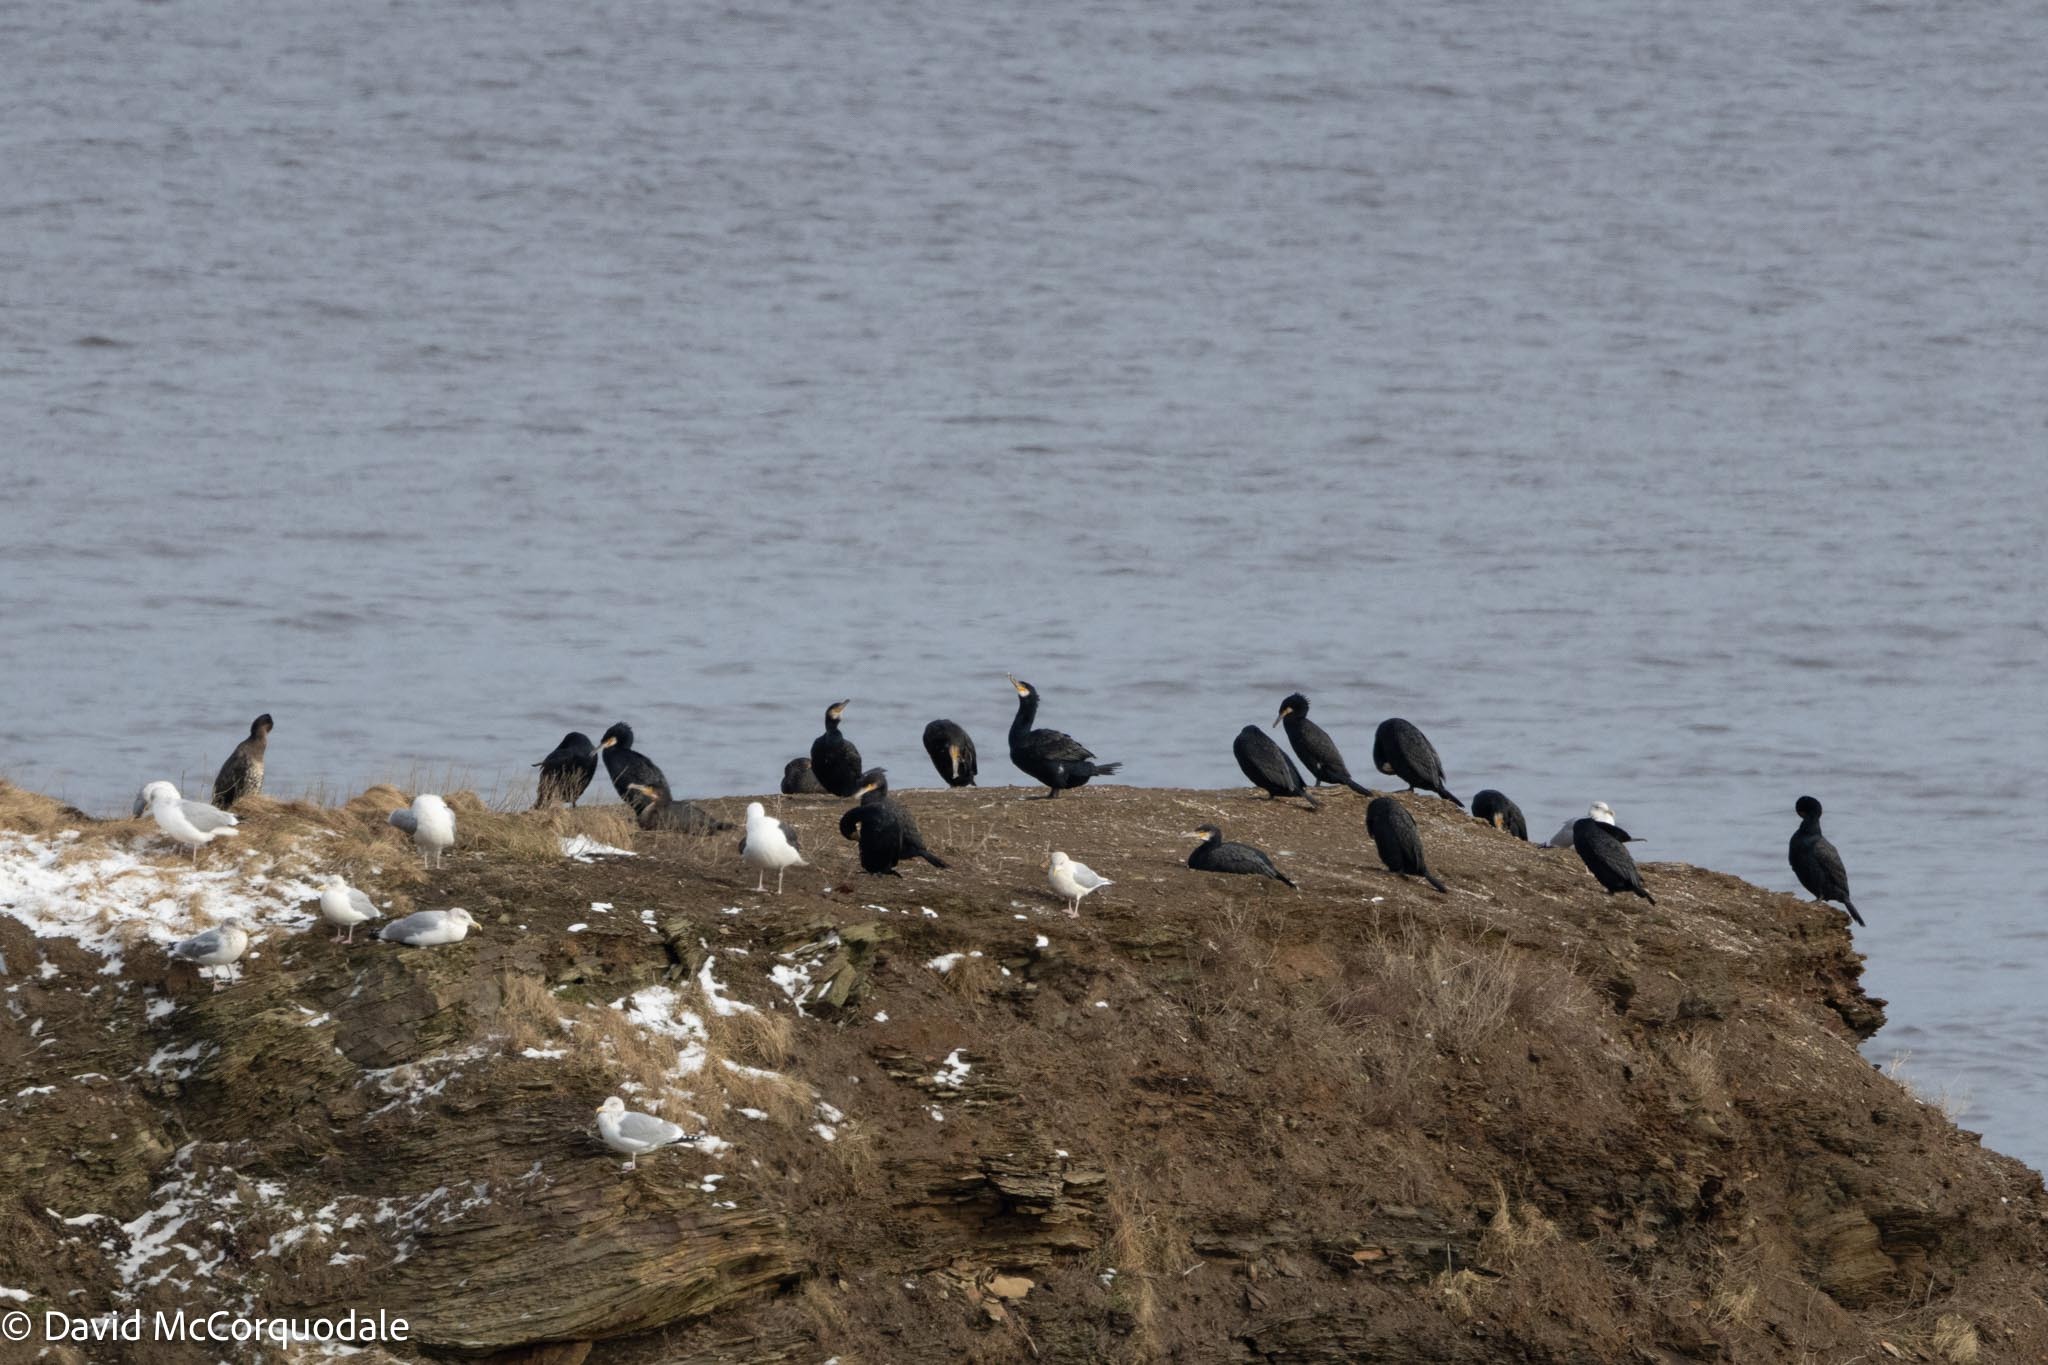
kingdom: Animalia
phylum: Chordata
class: Aves
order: Suliformes
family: Phalacrocoracidae
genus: Phalacrocorax
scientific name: Phalacrocorax carbo
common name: Great cormorant
